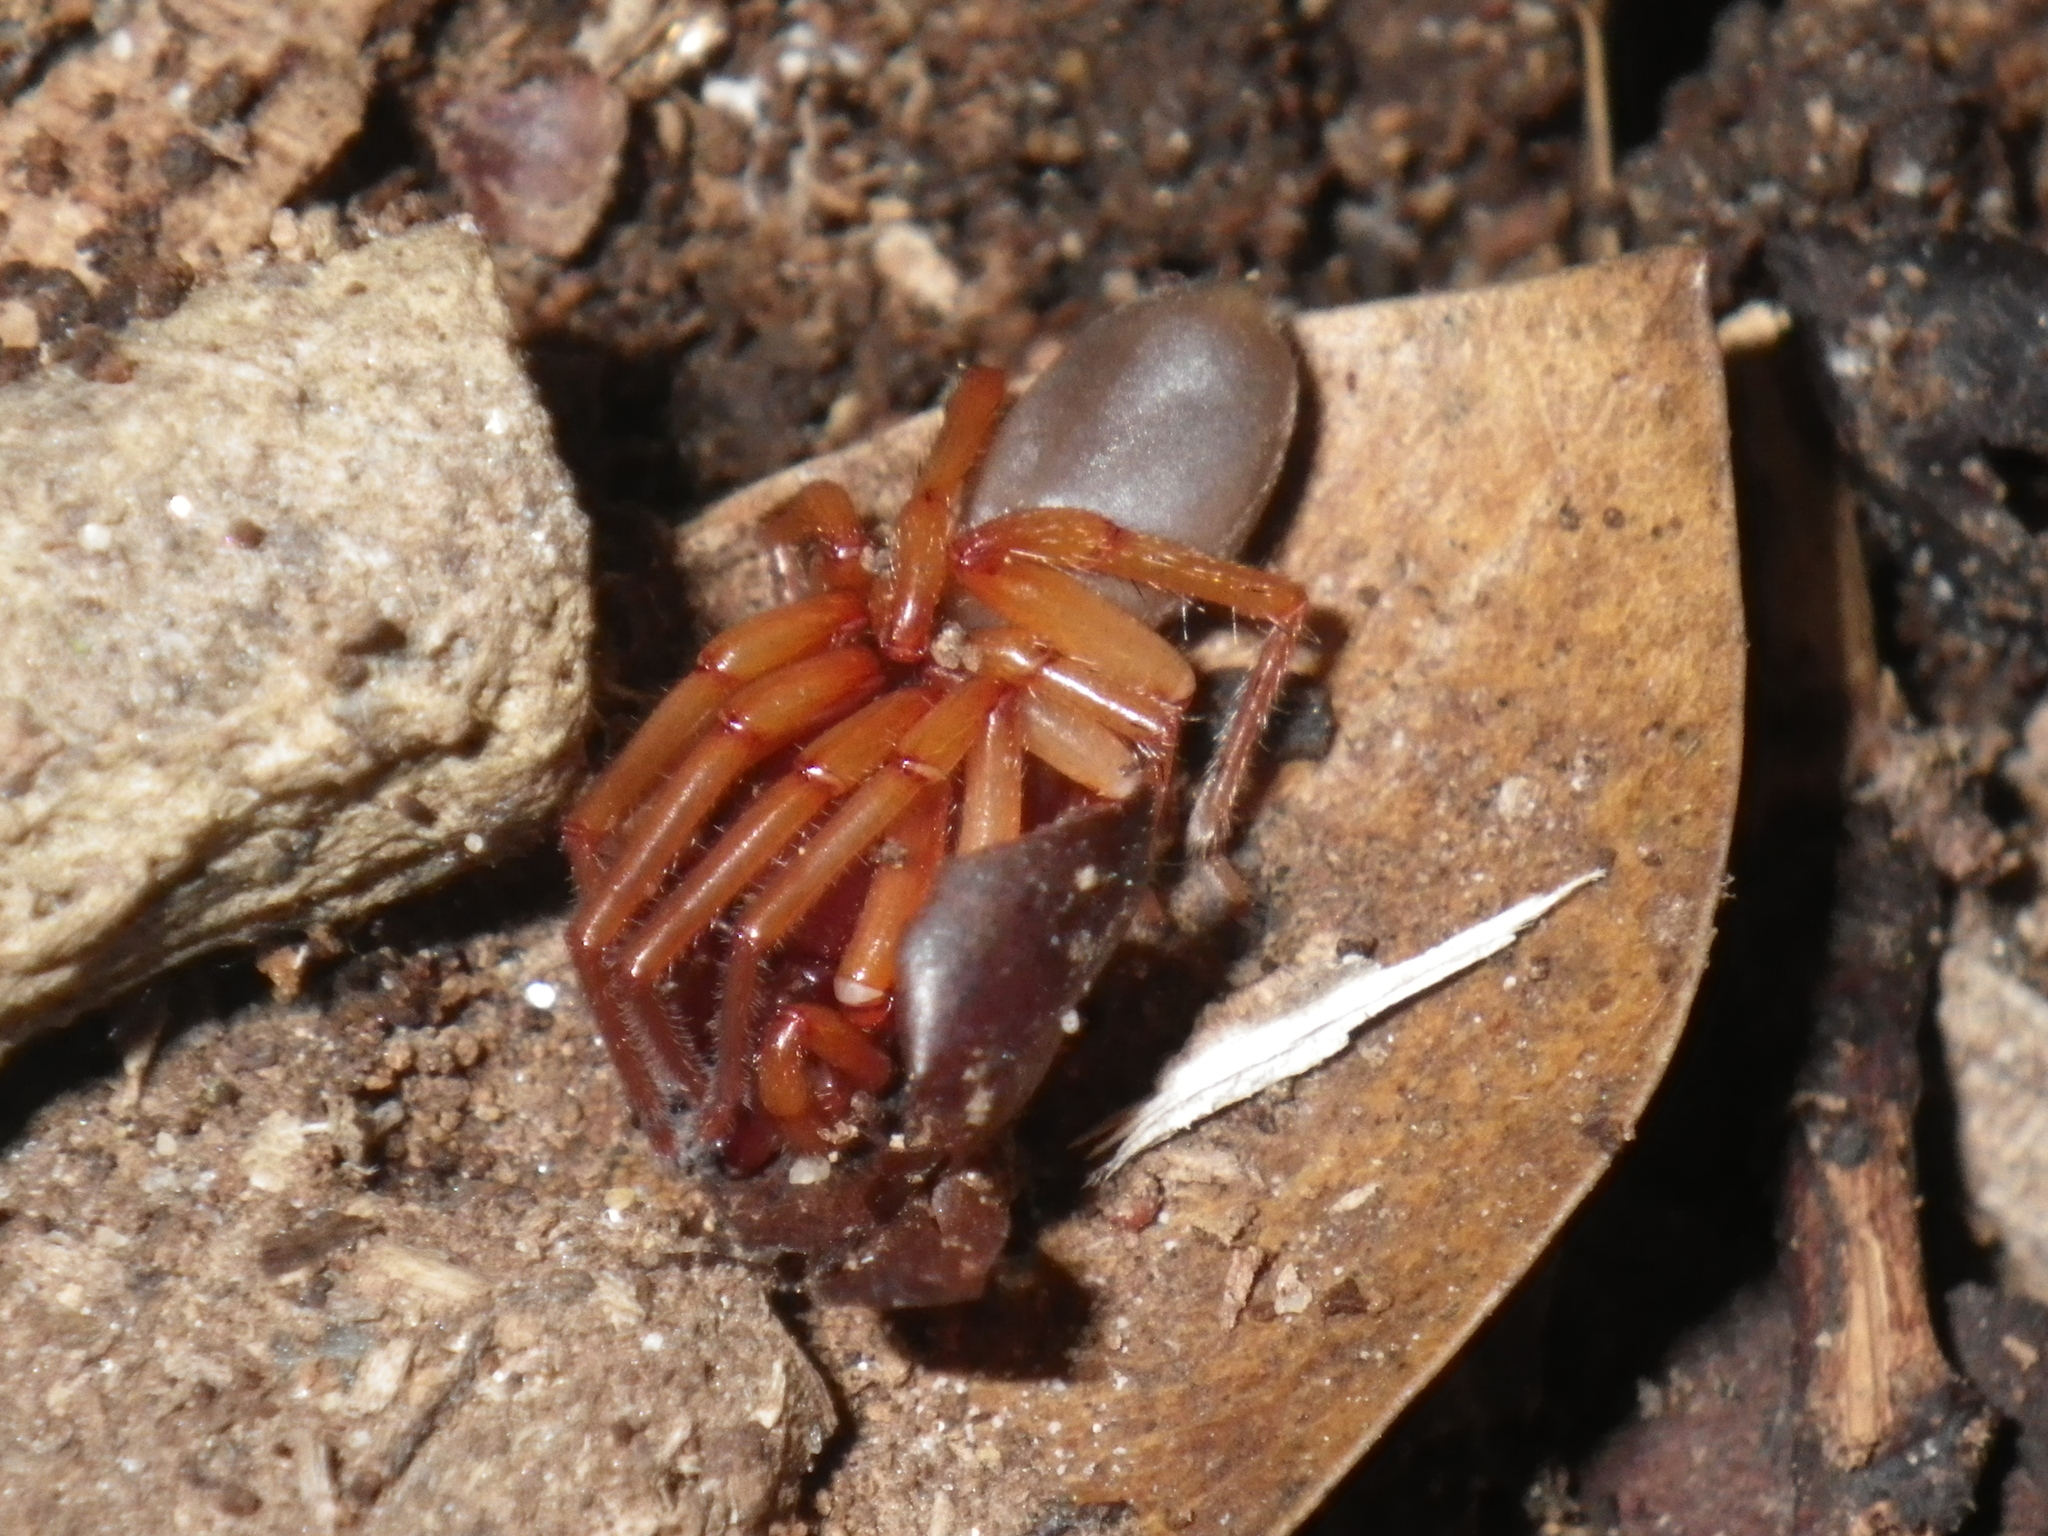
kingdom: Animalia
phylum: Arthropoda
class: Arachnida
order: Araneae
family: Dysderidae
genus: Dysdera
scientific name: Dysdera crocata
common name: Woodlouse spider
